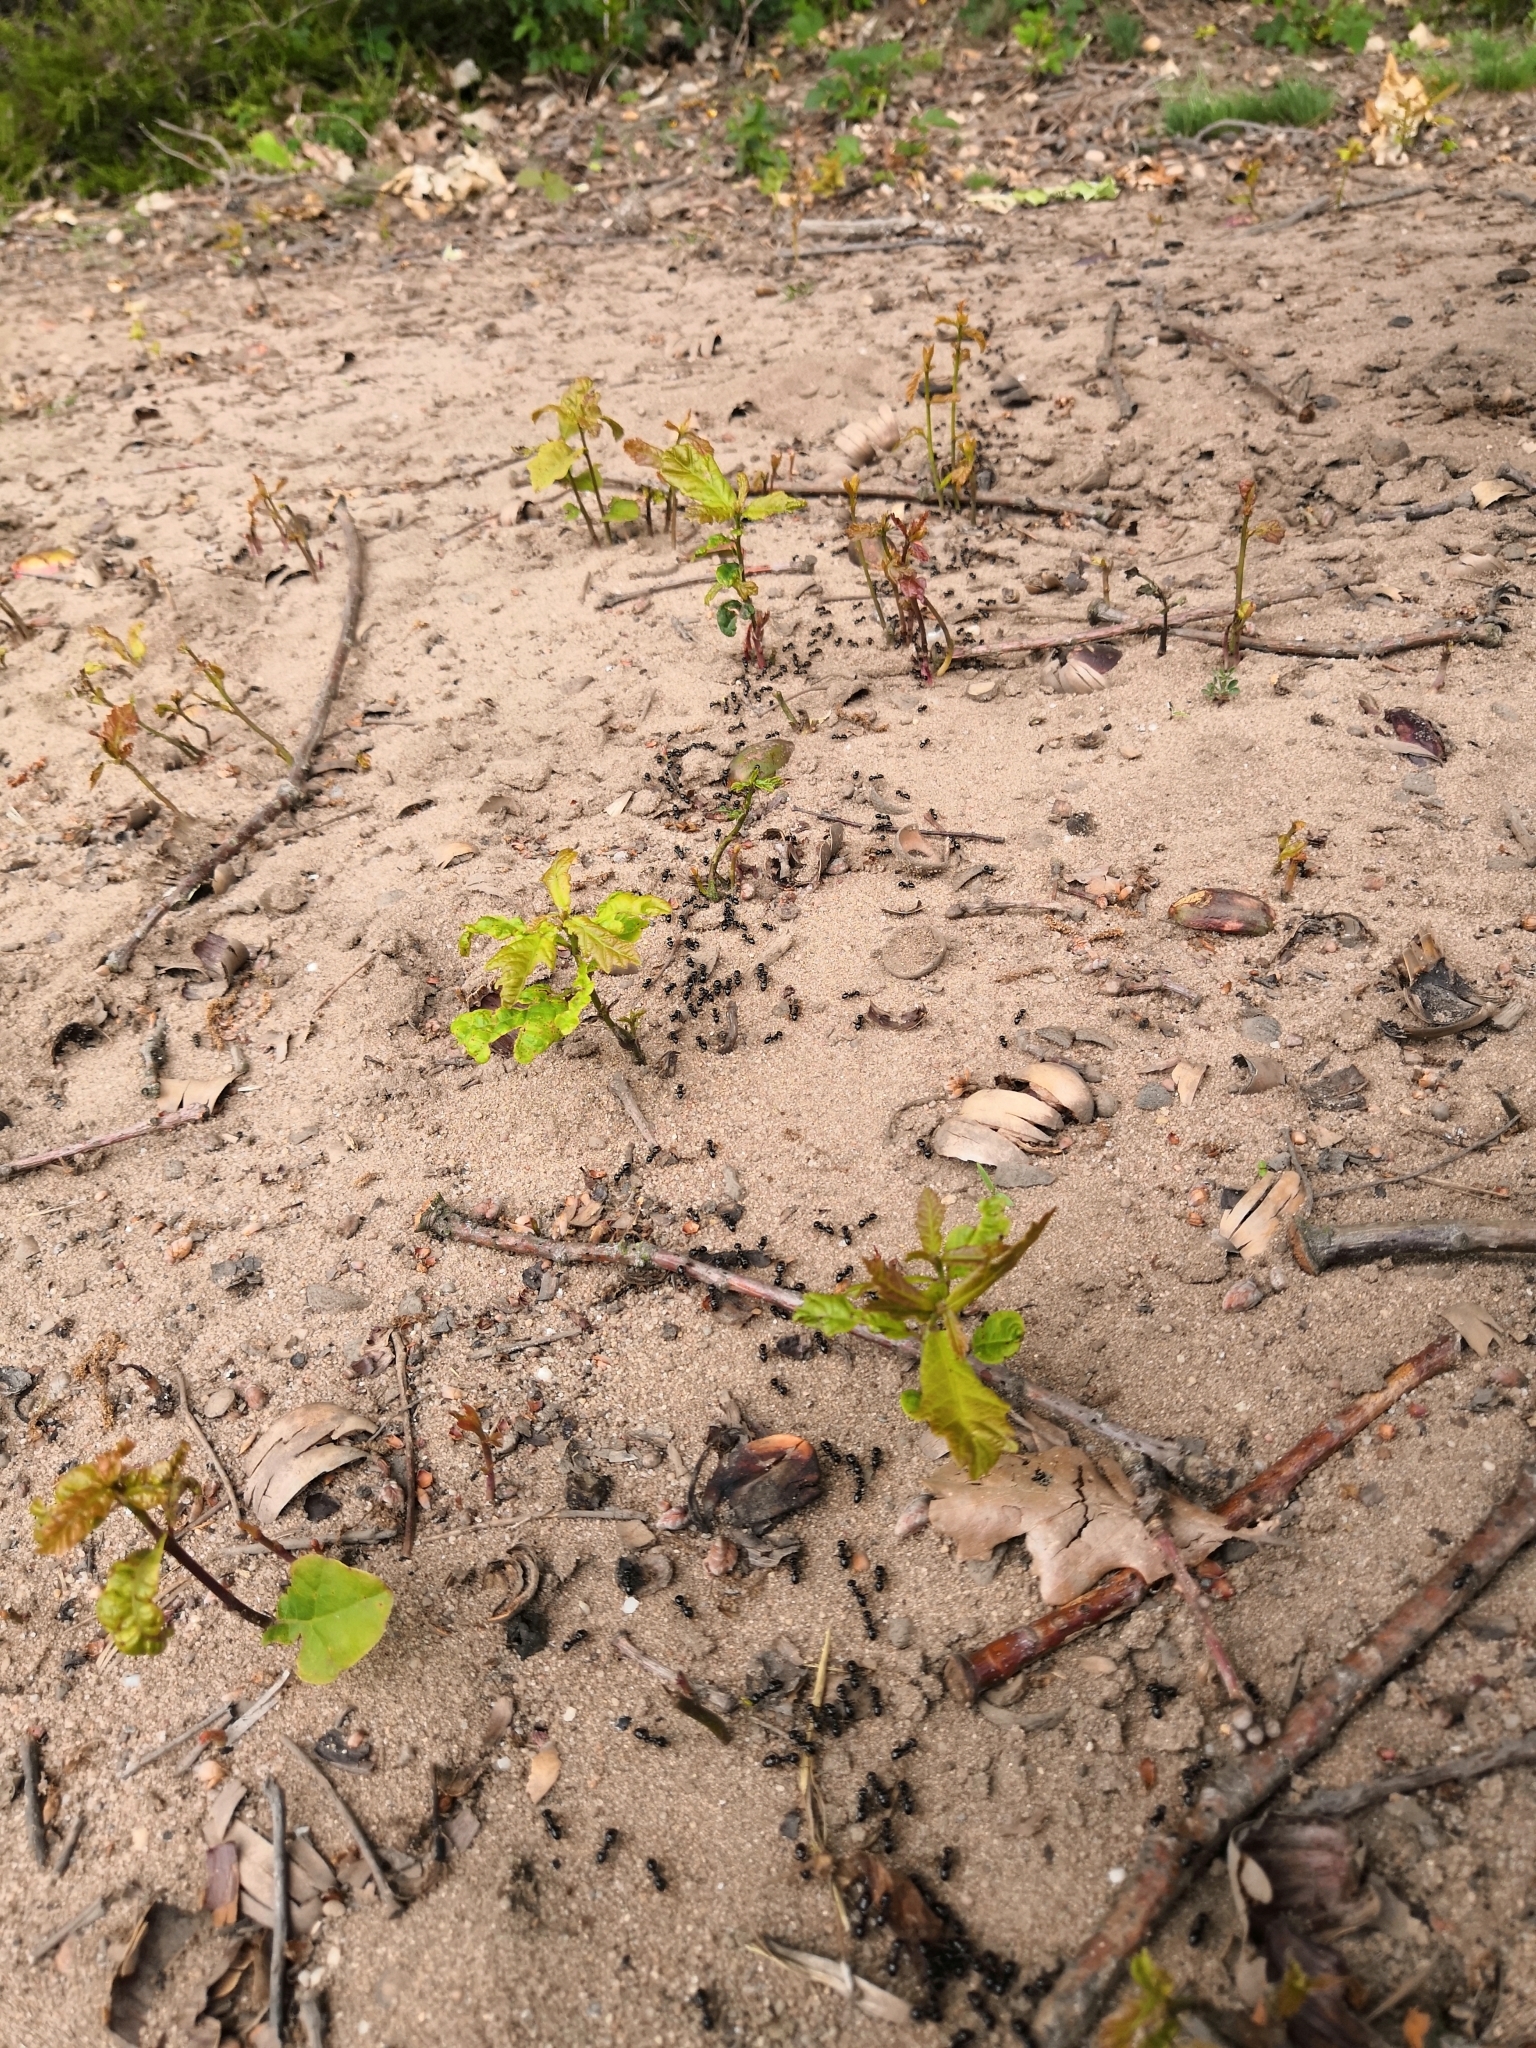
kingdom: Animalia
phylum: Arthropoda
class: Insecta
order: Hymenoptera
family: Formicidae
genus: Lasius
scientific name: Lasius fuliginosus
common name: Jet ant
